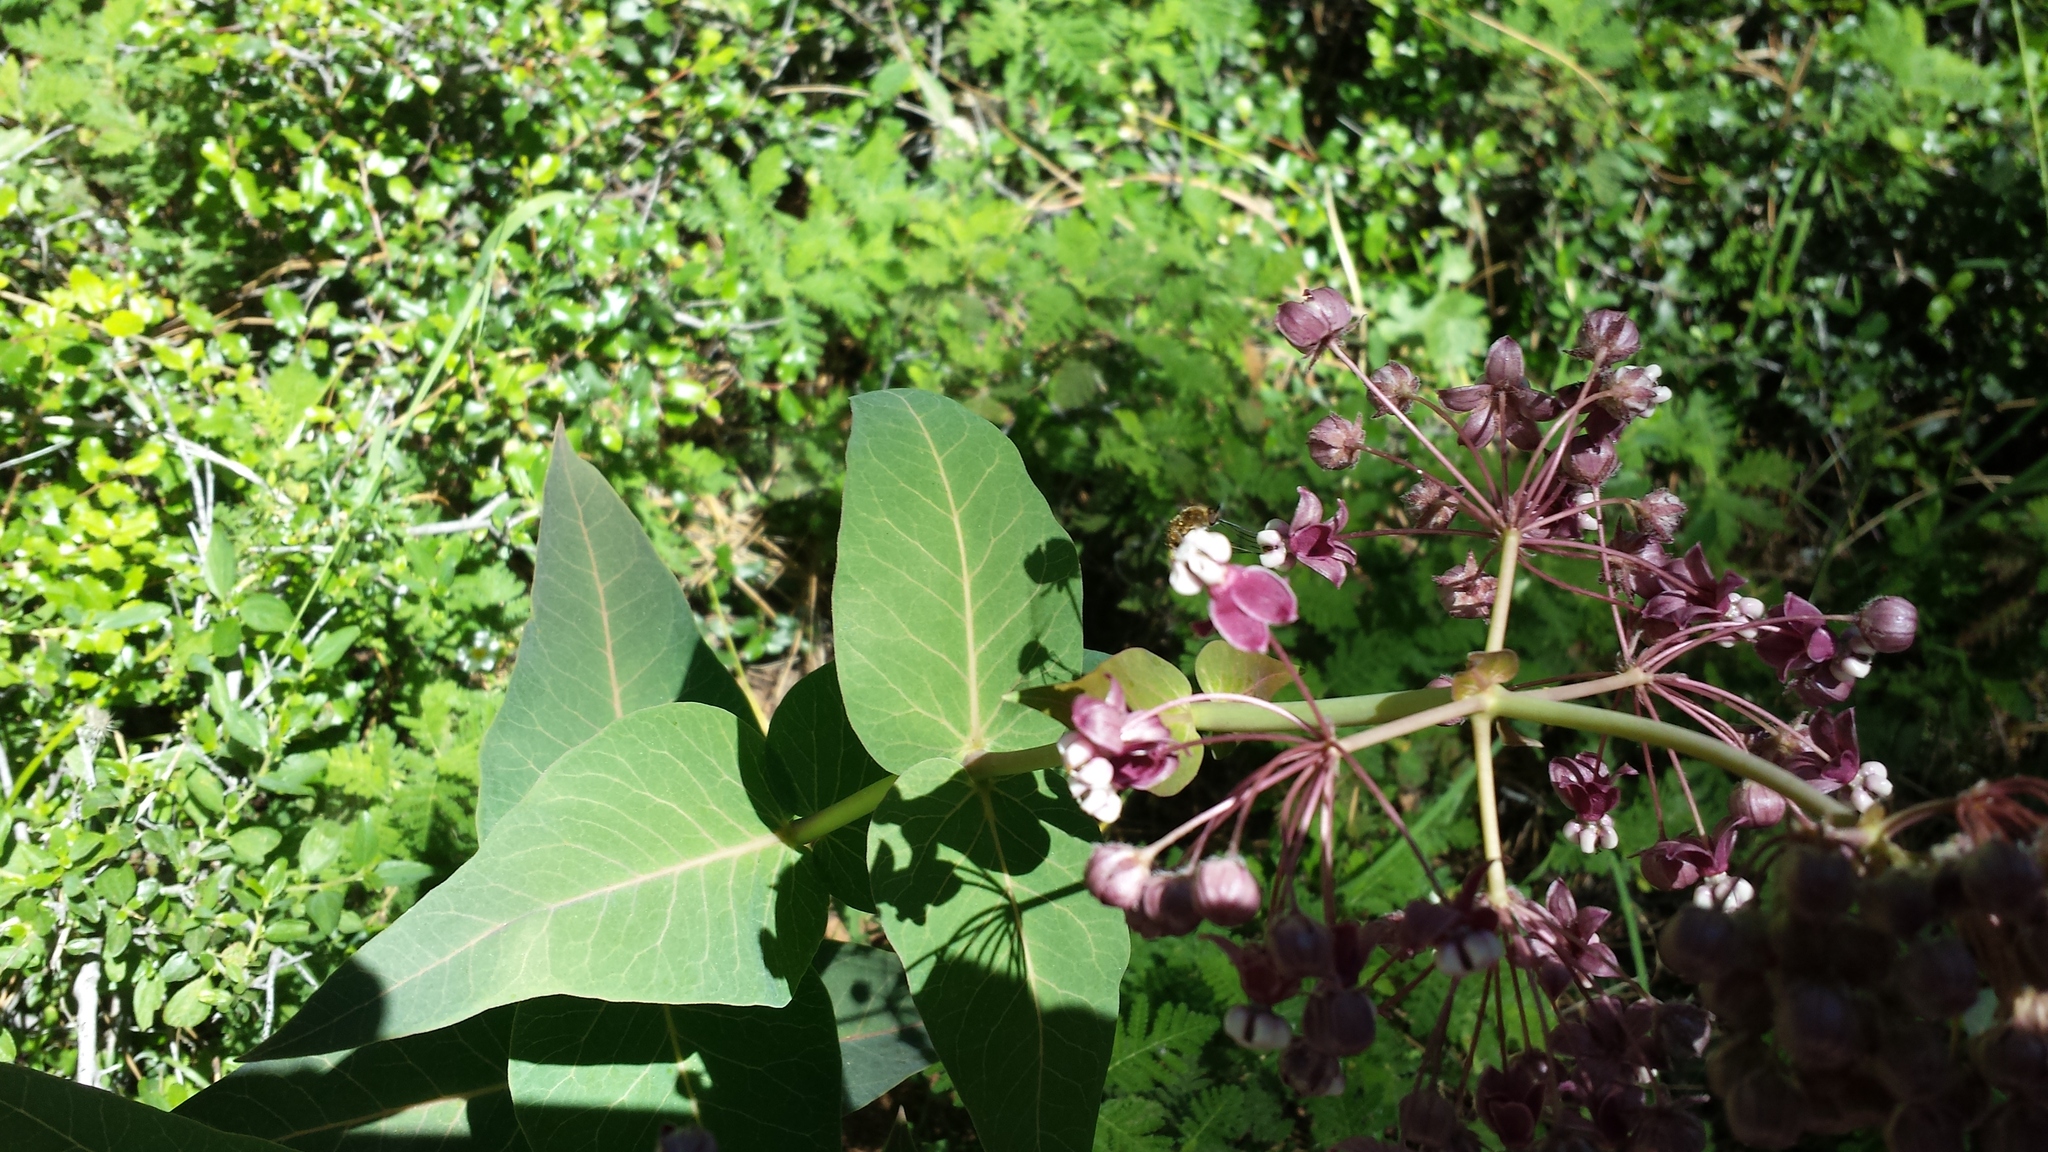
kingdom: Plantae
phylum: Tracheophyta
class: Magnoliopsida
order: Gentianales
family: Apocynaceae
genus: Asclepias
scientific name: Asclepias cordifolia
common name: Purple milkweed
